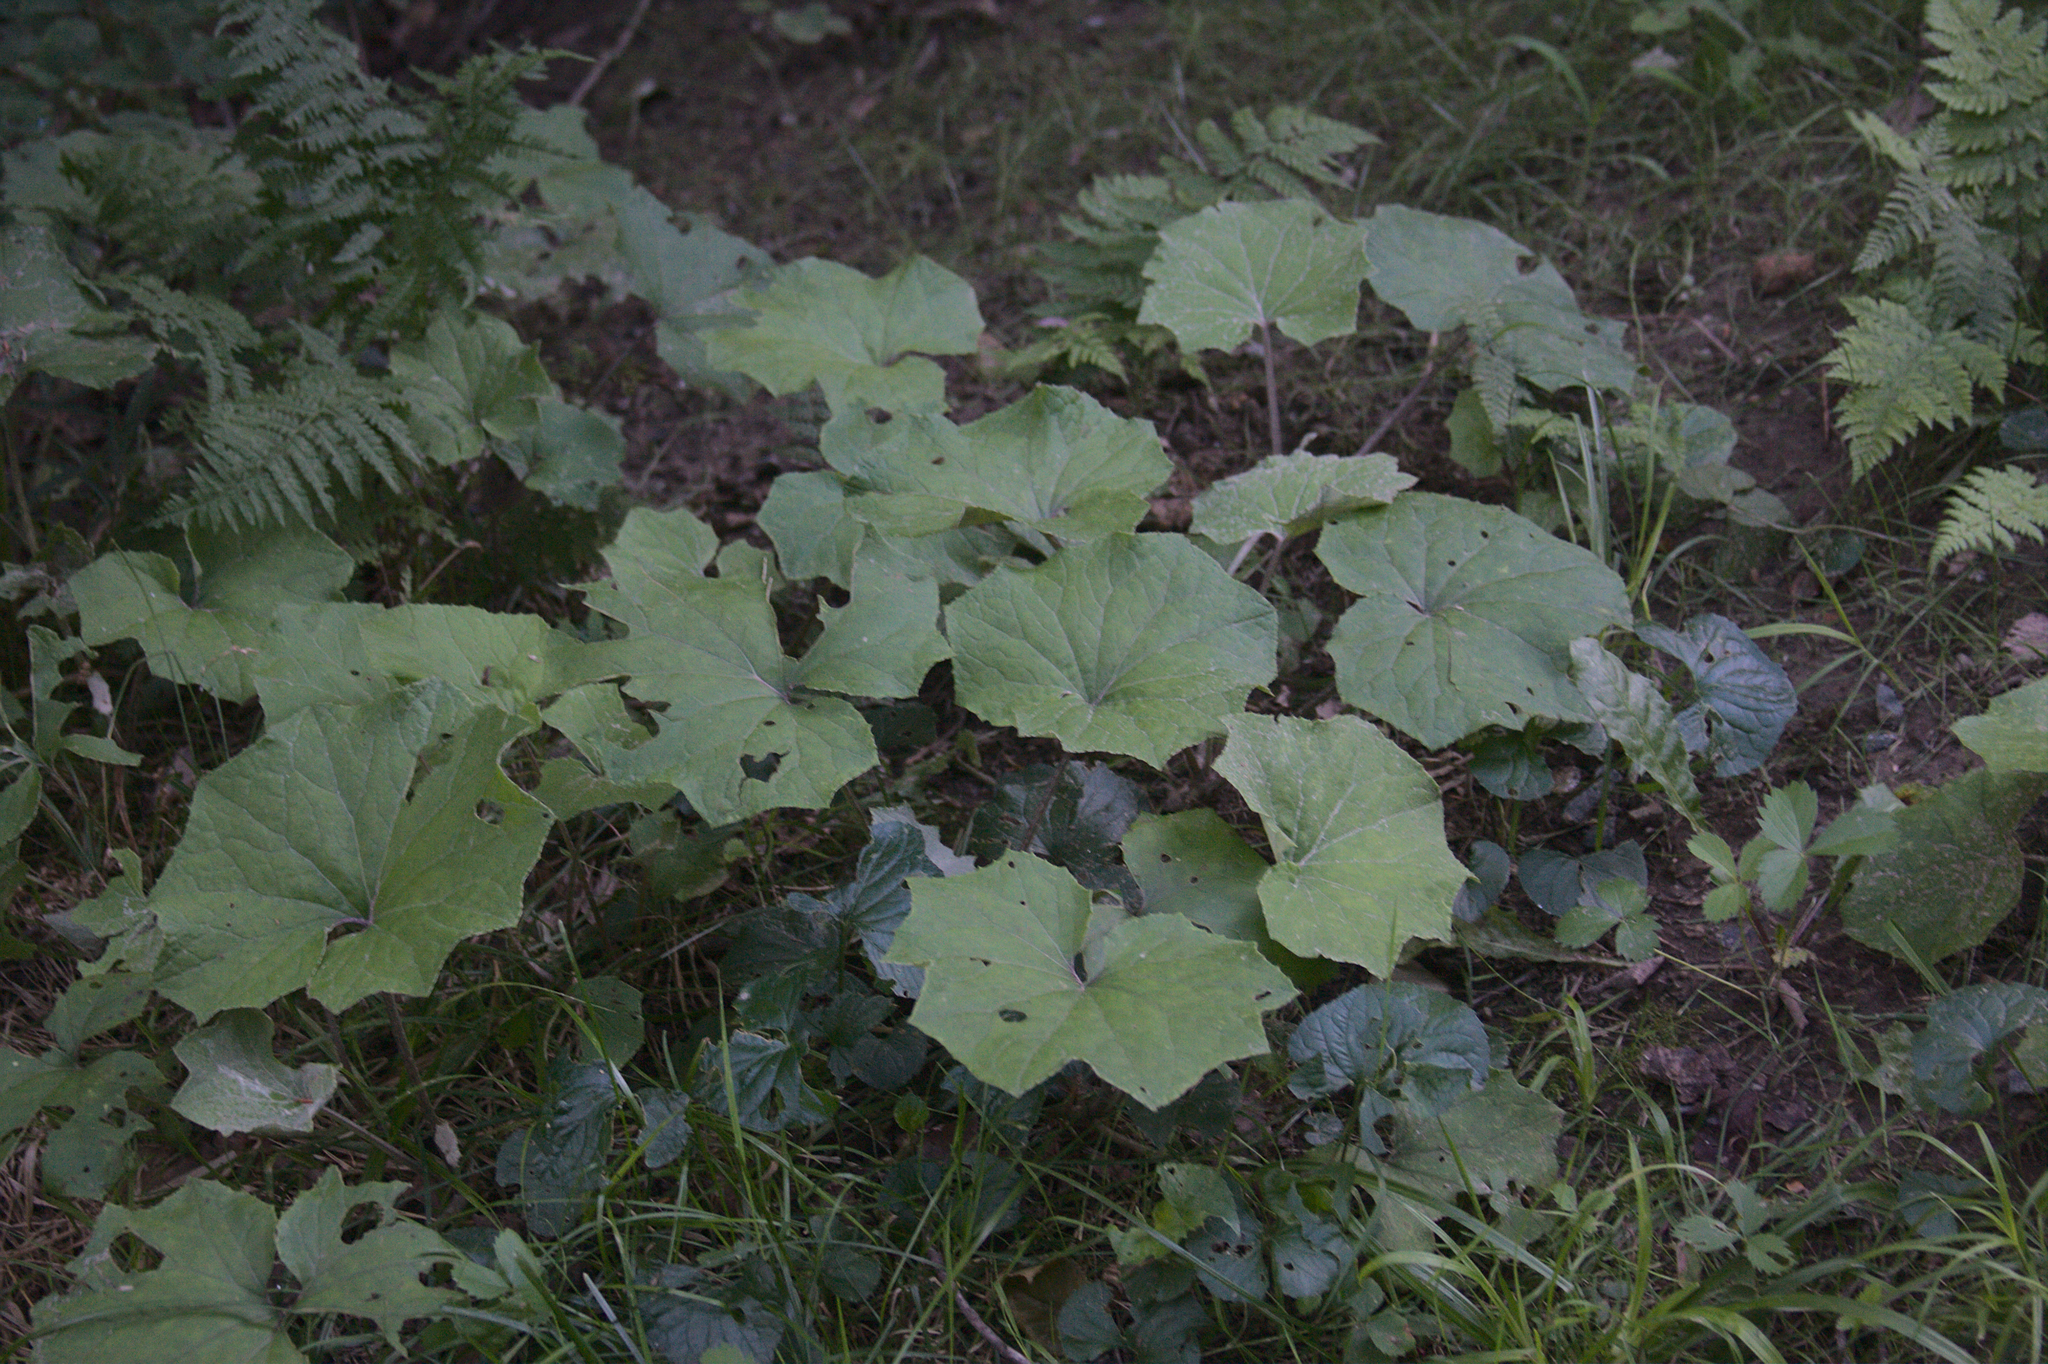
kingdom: Plantae
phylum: Tracheophyta
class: Magnoliopsida
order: Asterales
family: Asteraceae
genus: Tussilago
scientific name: Tussilago farfara
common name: Coltsfoot
